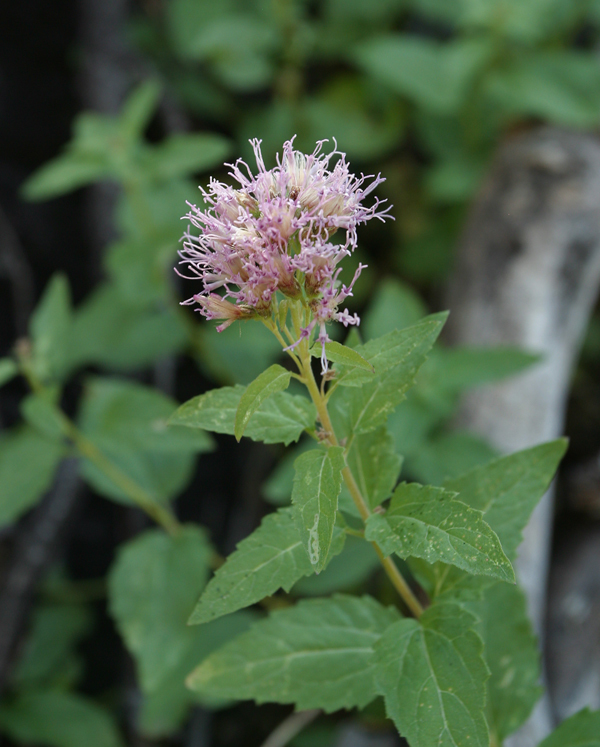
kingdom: Plantae
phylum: Tracheophyta
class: Magnoliopsida
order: Asterales
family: Asteraceae
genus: Ageratina
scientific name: Ageratina occidentalis
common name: Western snakeroot
